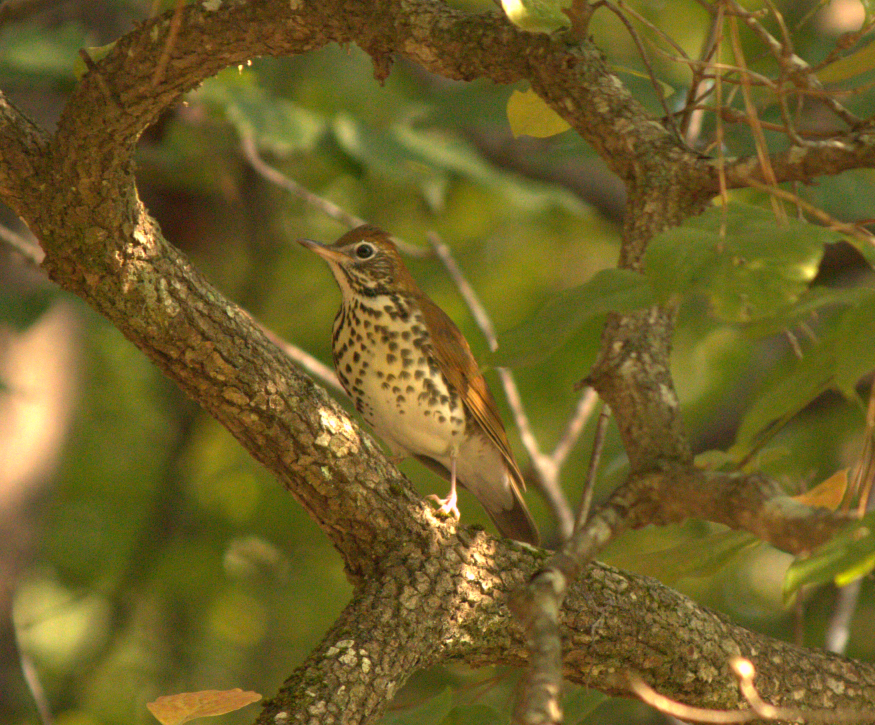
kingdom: Animalia
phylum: Chordata
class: Aves
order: Passeriformes
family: Turdidae
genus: Hylocichla
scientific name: Hylocichla mustelina
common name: Wood thrush
